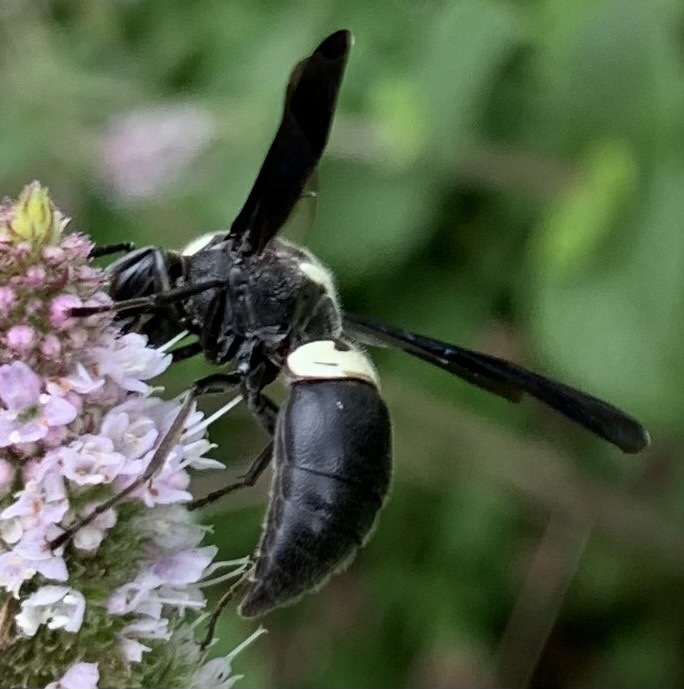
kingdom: Animalia
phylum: Arthropoda
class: Insecta
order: Hymenoptera
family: Eumenidae
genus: Monobia
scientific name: Monobia quadridens
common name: Four-toothed mason wasp
